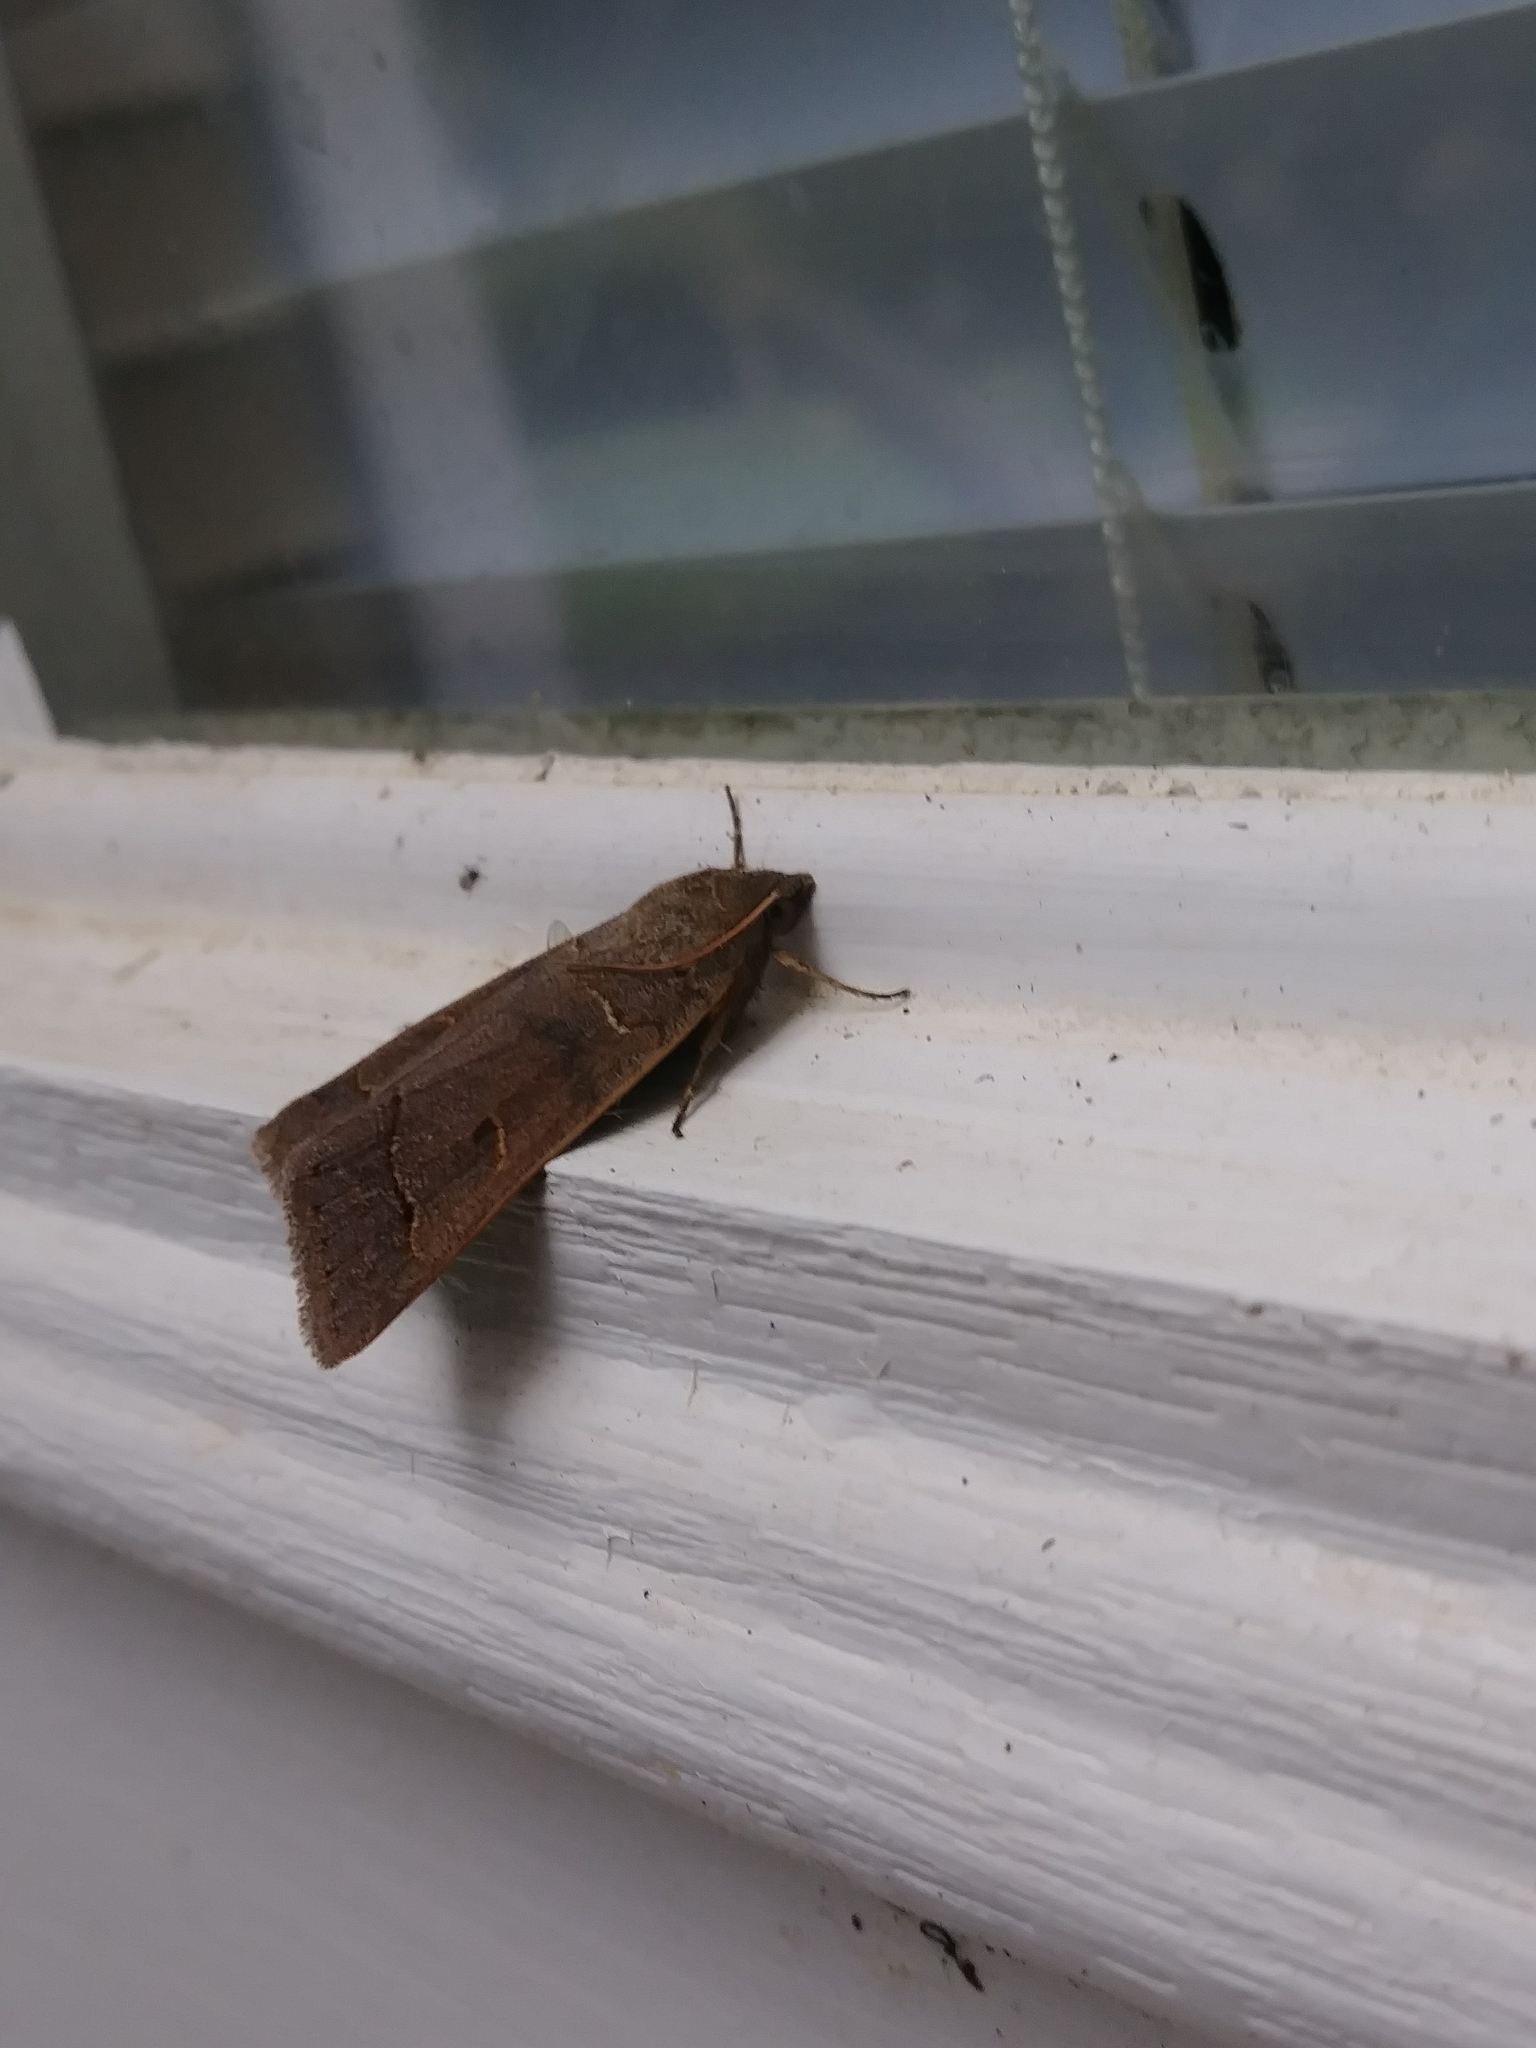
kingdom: Animalia
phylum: Arthropoda
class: Insecta
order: Lepidoptera
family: Erebidae
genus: Phoberia
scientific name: Phoberia atomaris
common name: Common oak moth
